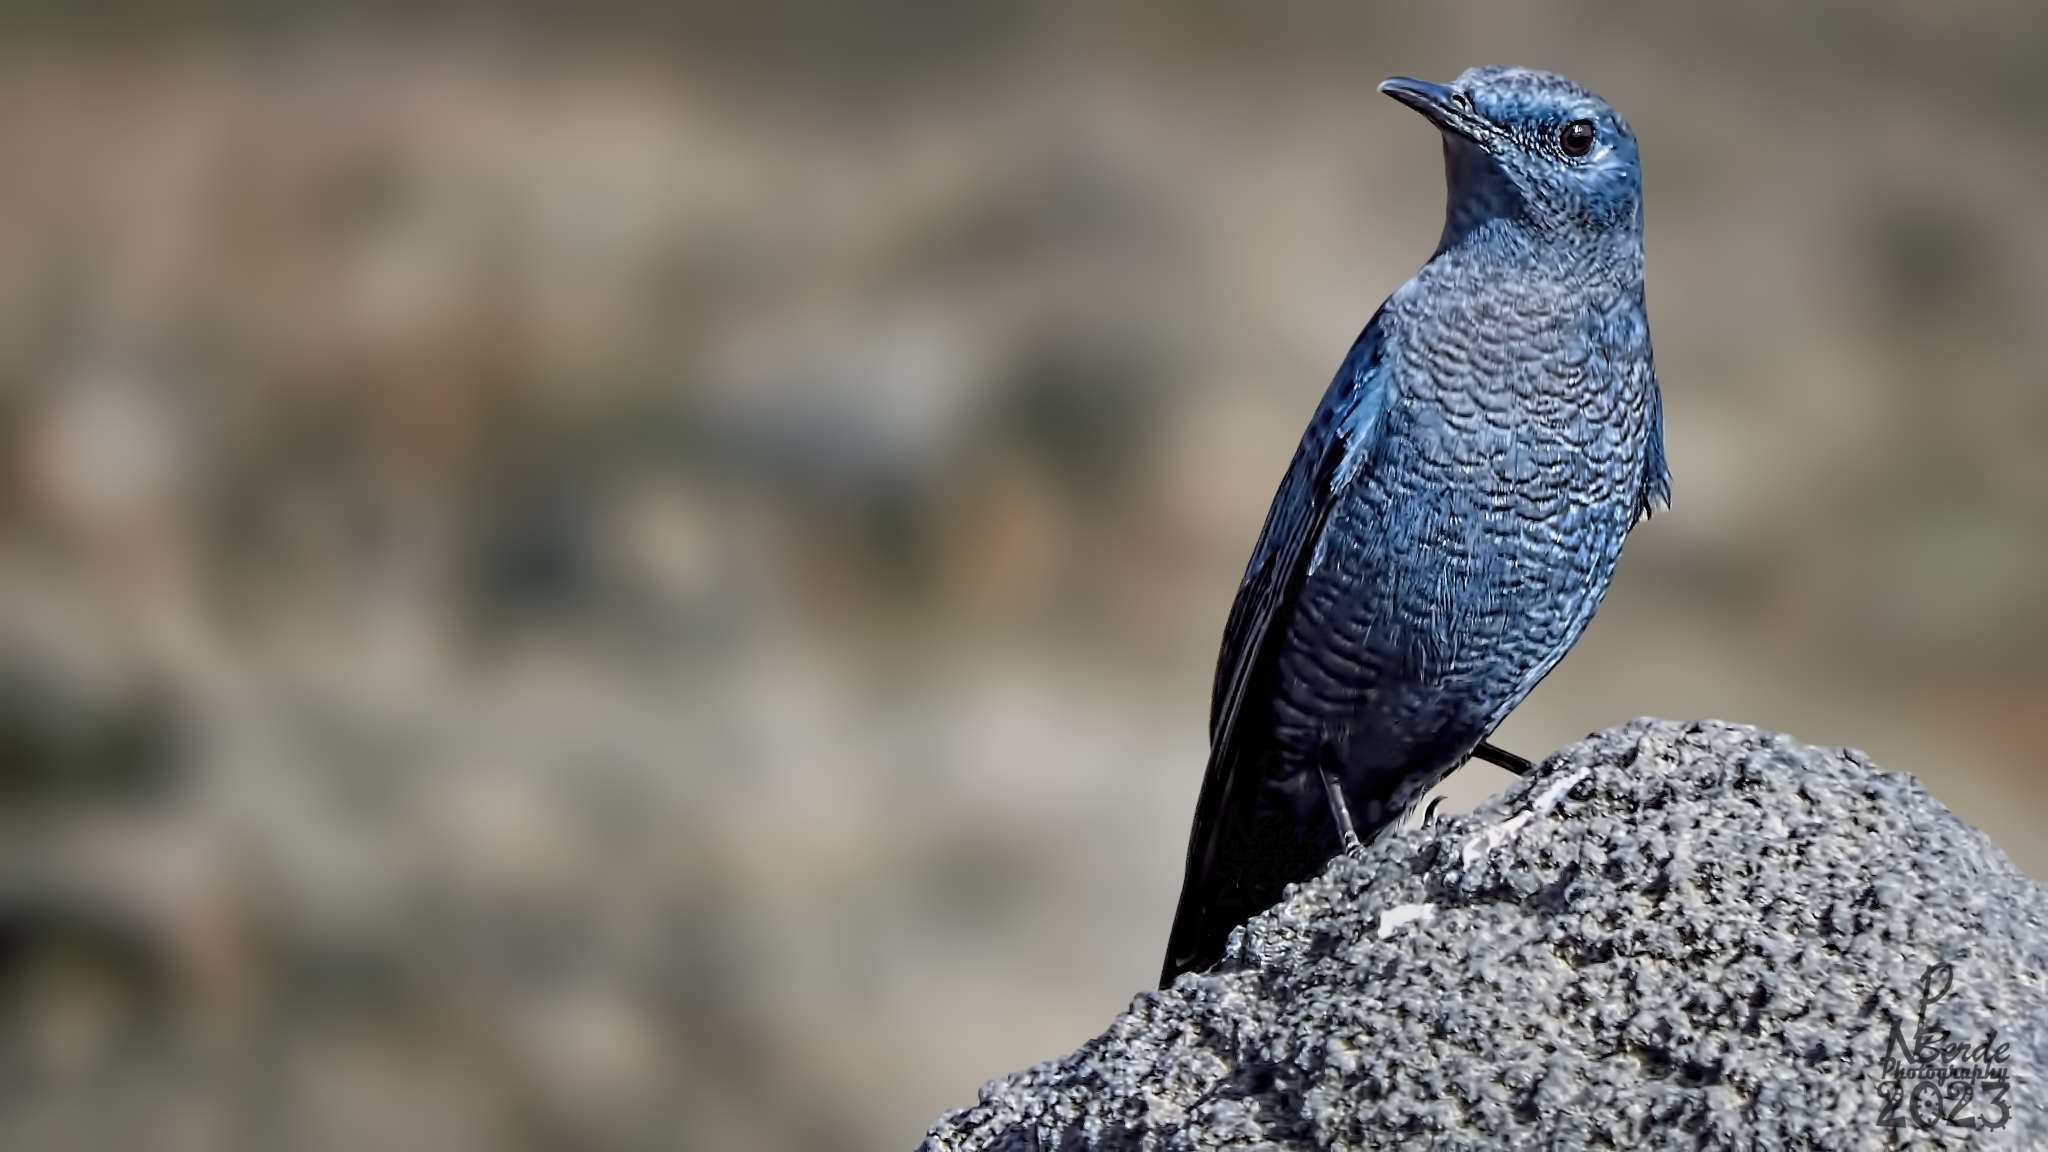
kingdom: Animalia
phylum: Chordata
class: Aves
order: Passeriformes
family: Muscicapidae
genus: Monticola
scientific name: Monticola solitarius
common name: Blue rock thrush
